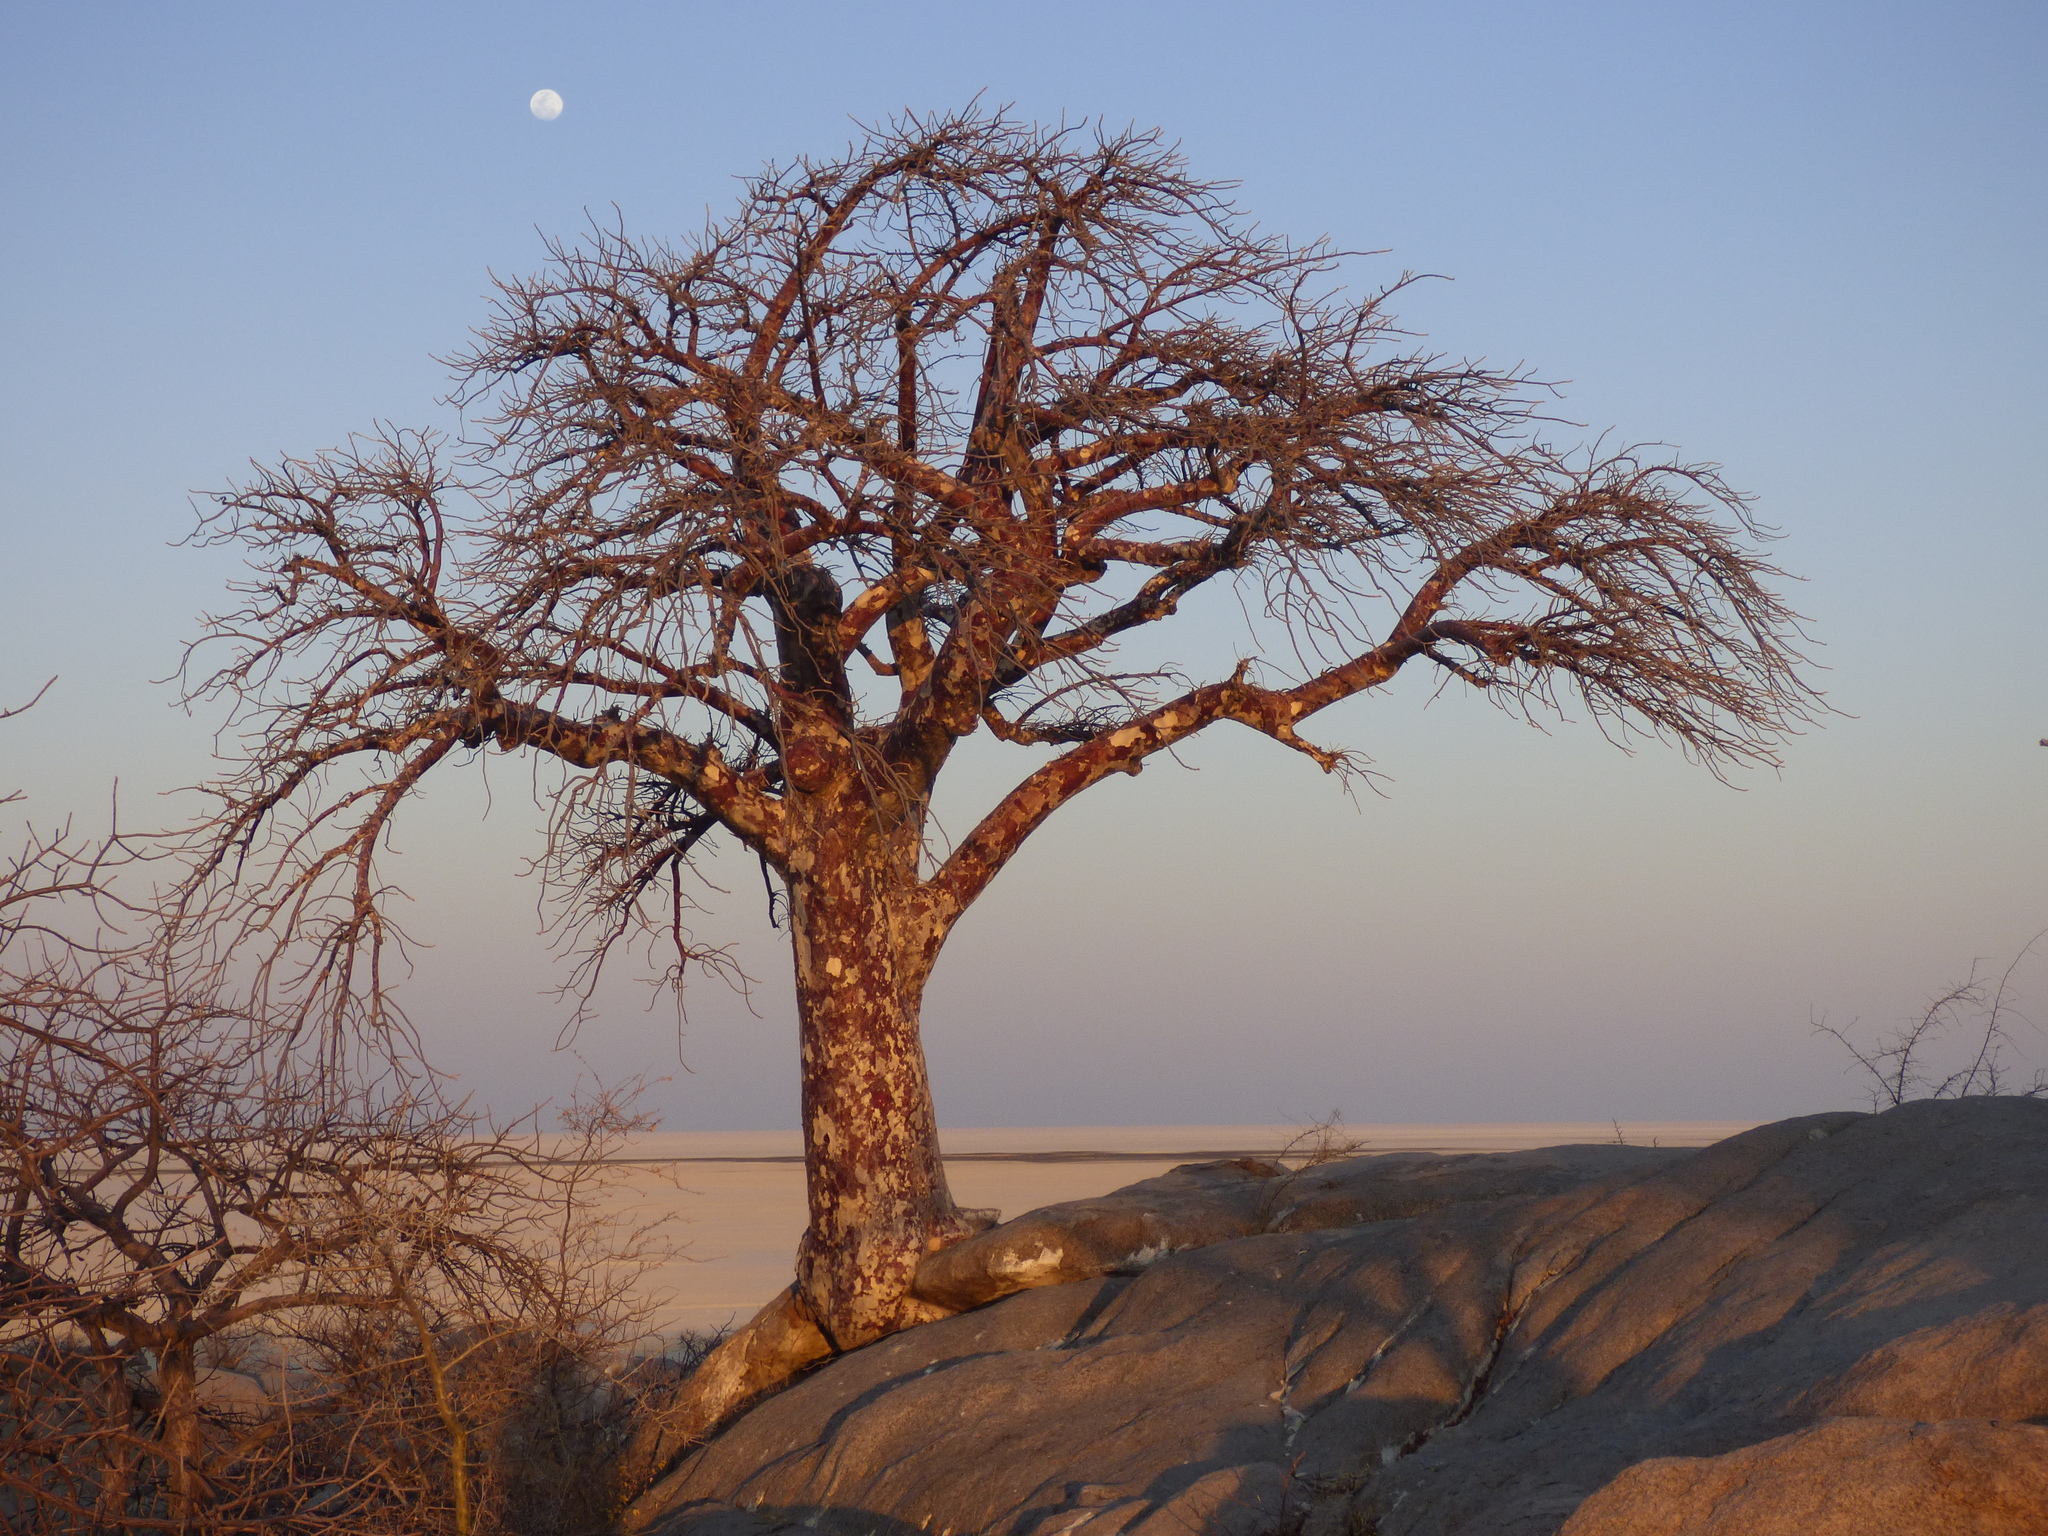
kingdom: Plantae
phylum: Tracheophyta
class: Magnoliopsida
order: Malvales
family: Malvaceae
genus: Sterculia
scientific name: Sterculia africana
